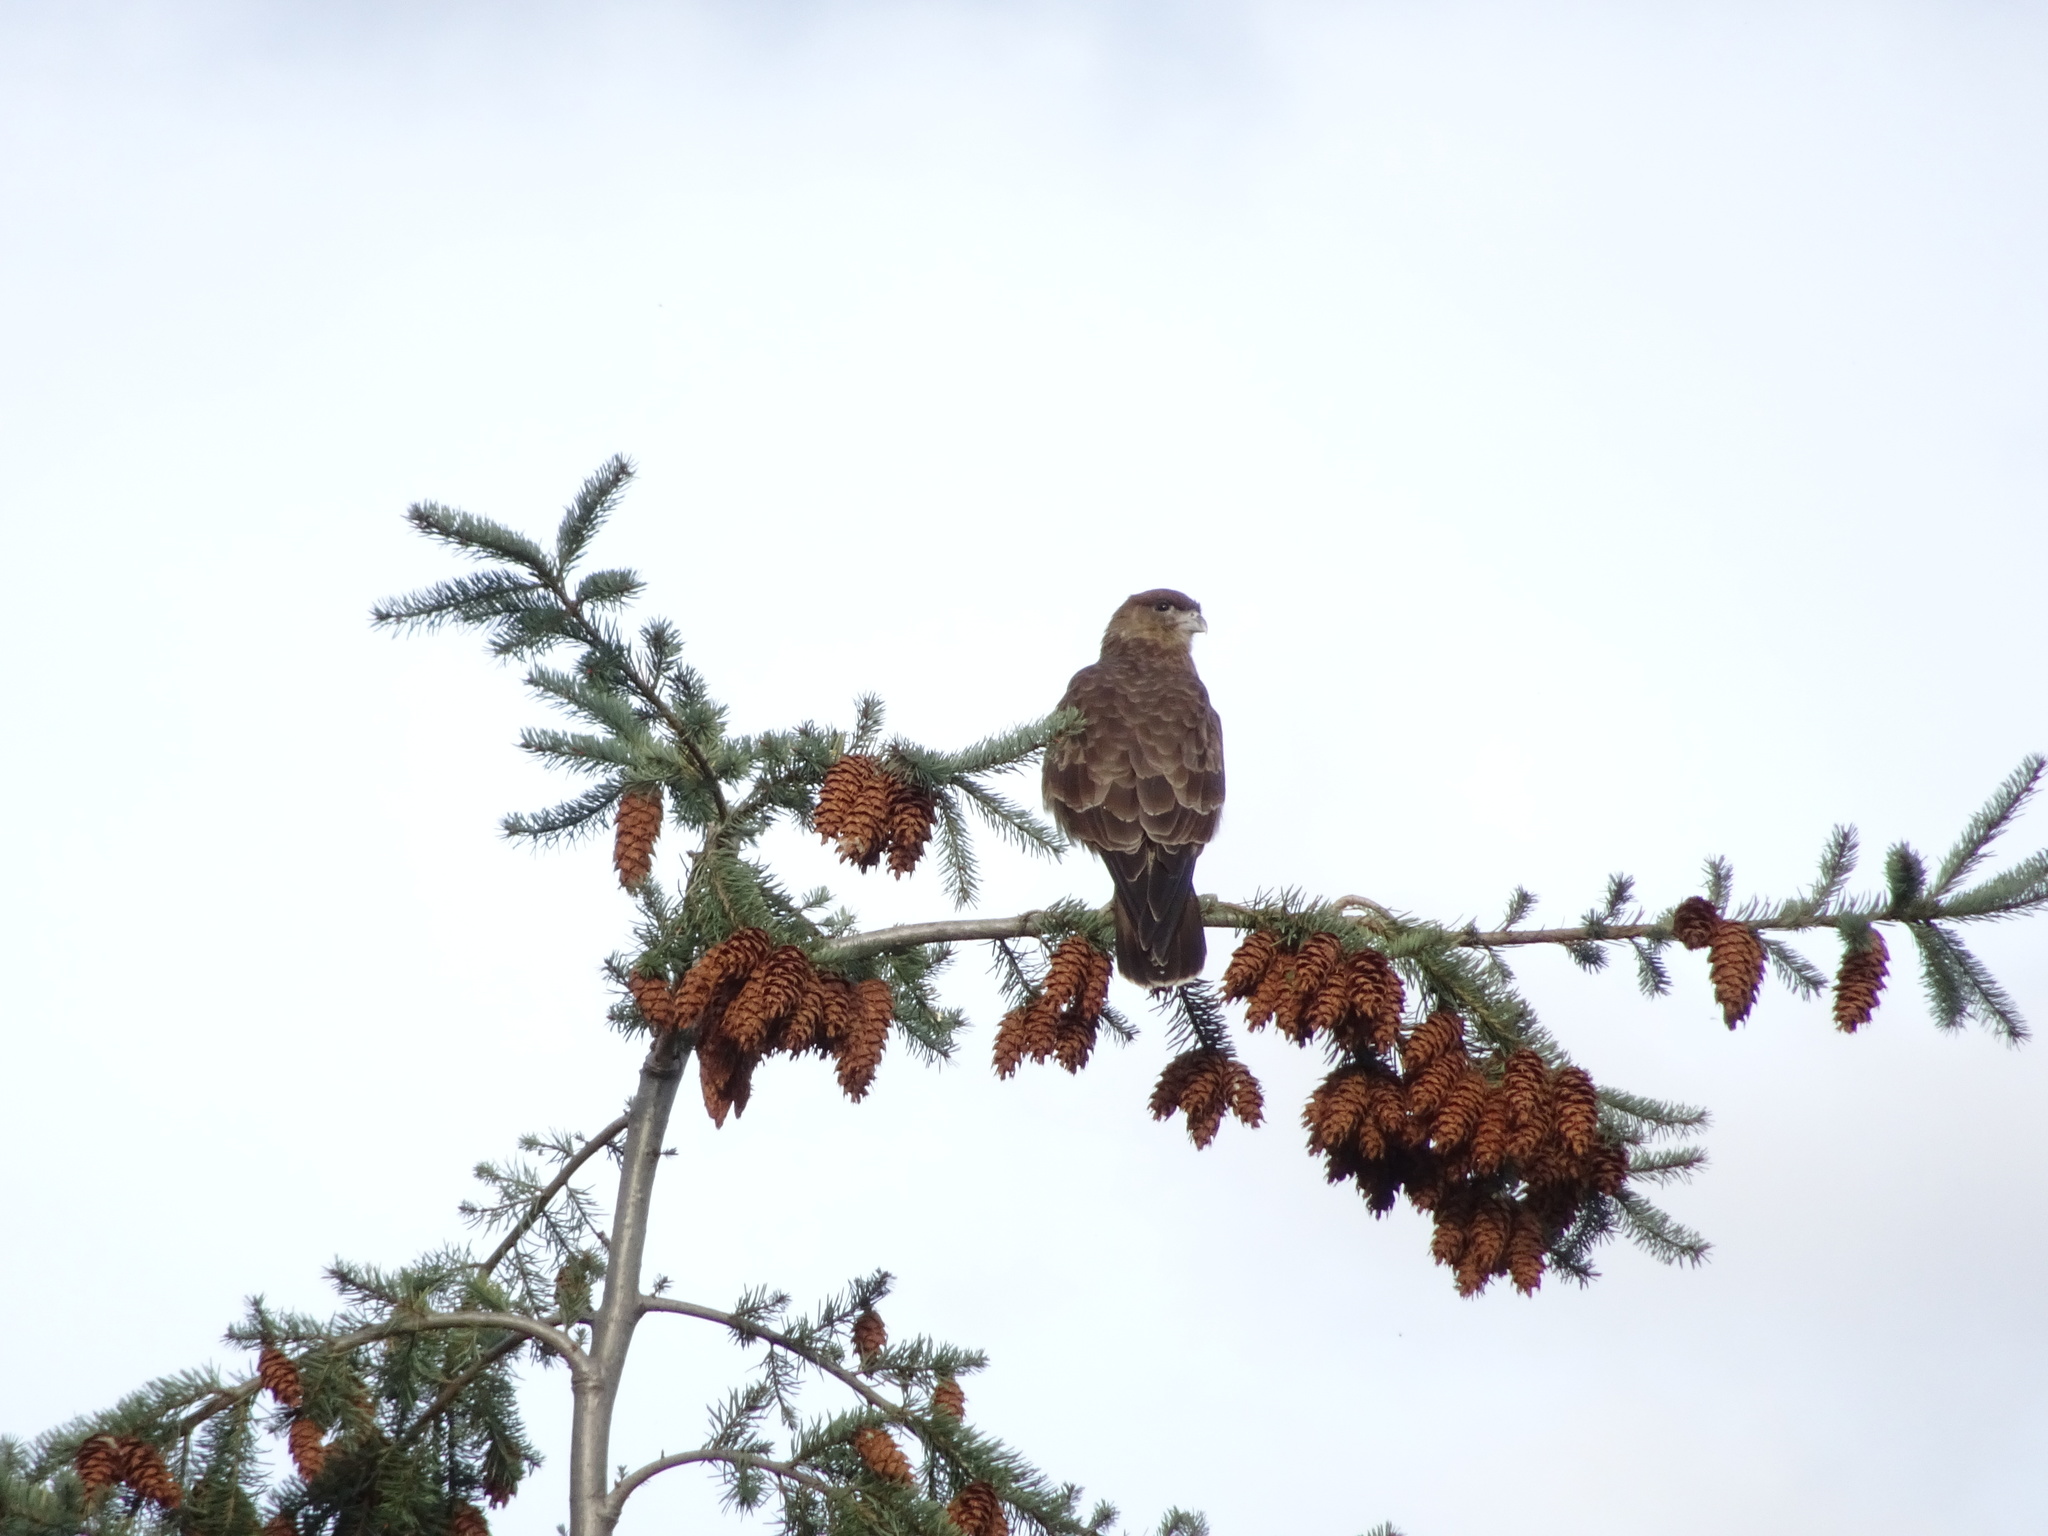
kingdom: Animalia
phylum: Chordata
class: Aves
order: Falconiformes
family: Falconidae
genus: Daptrius
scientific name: Daptrius
